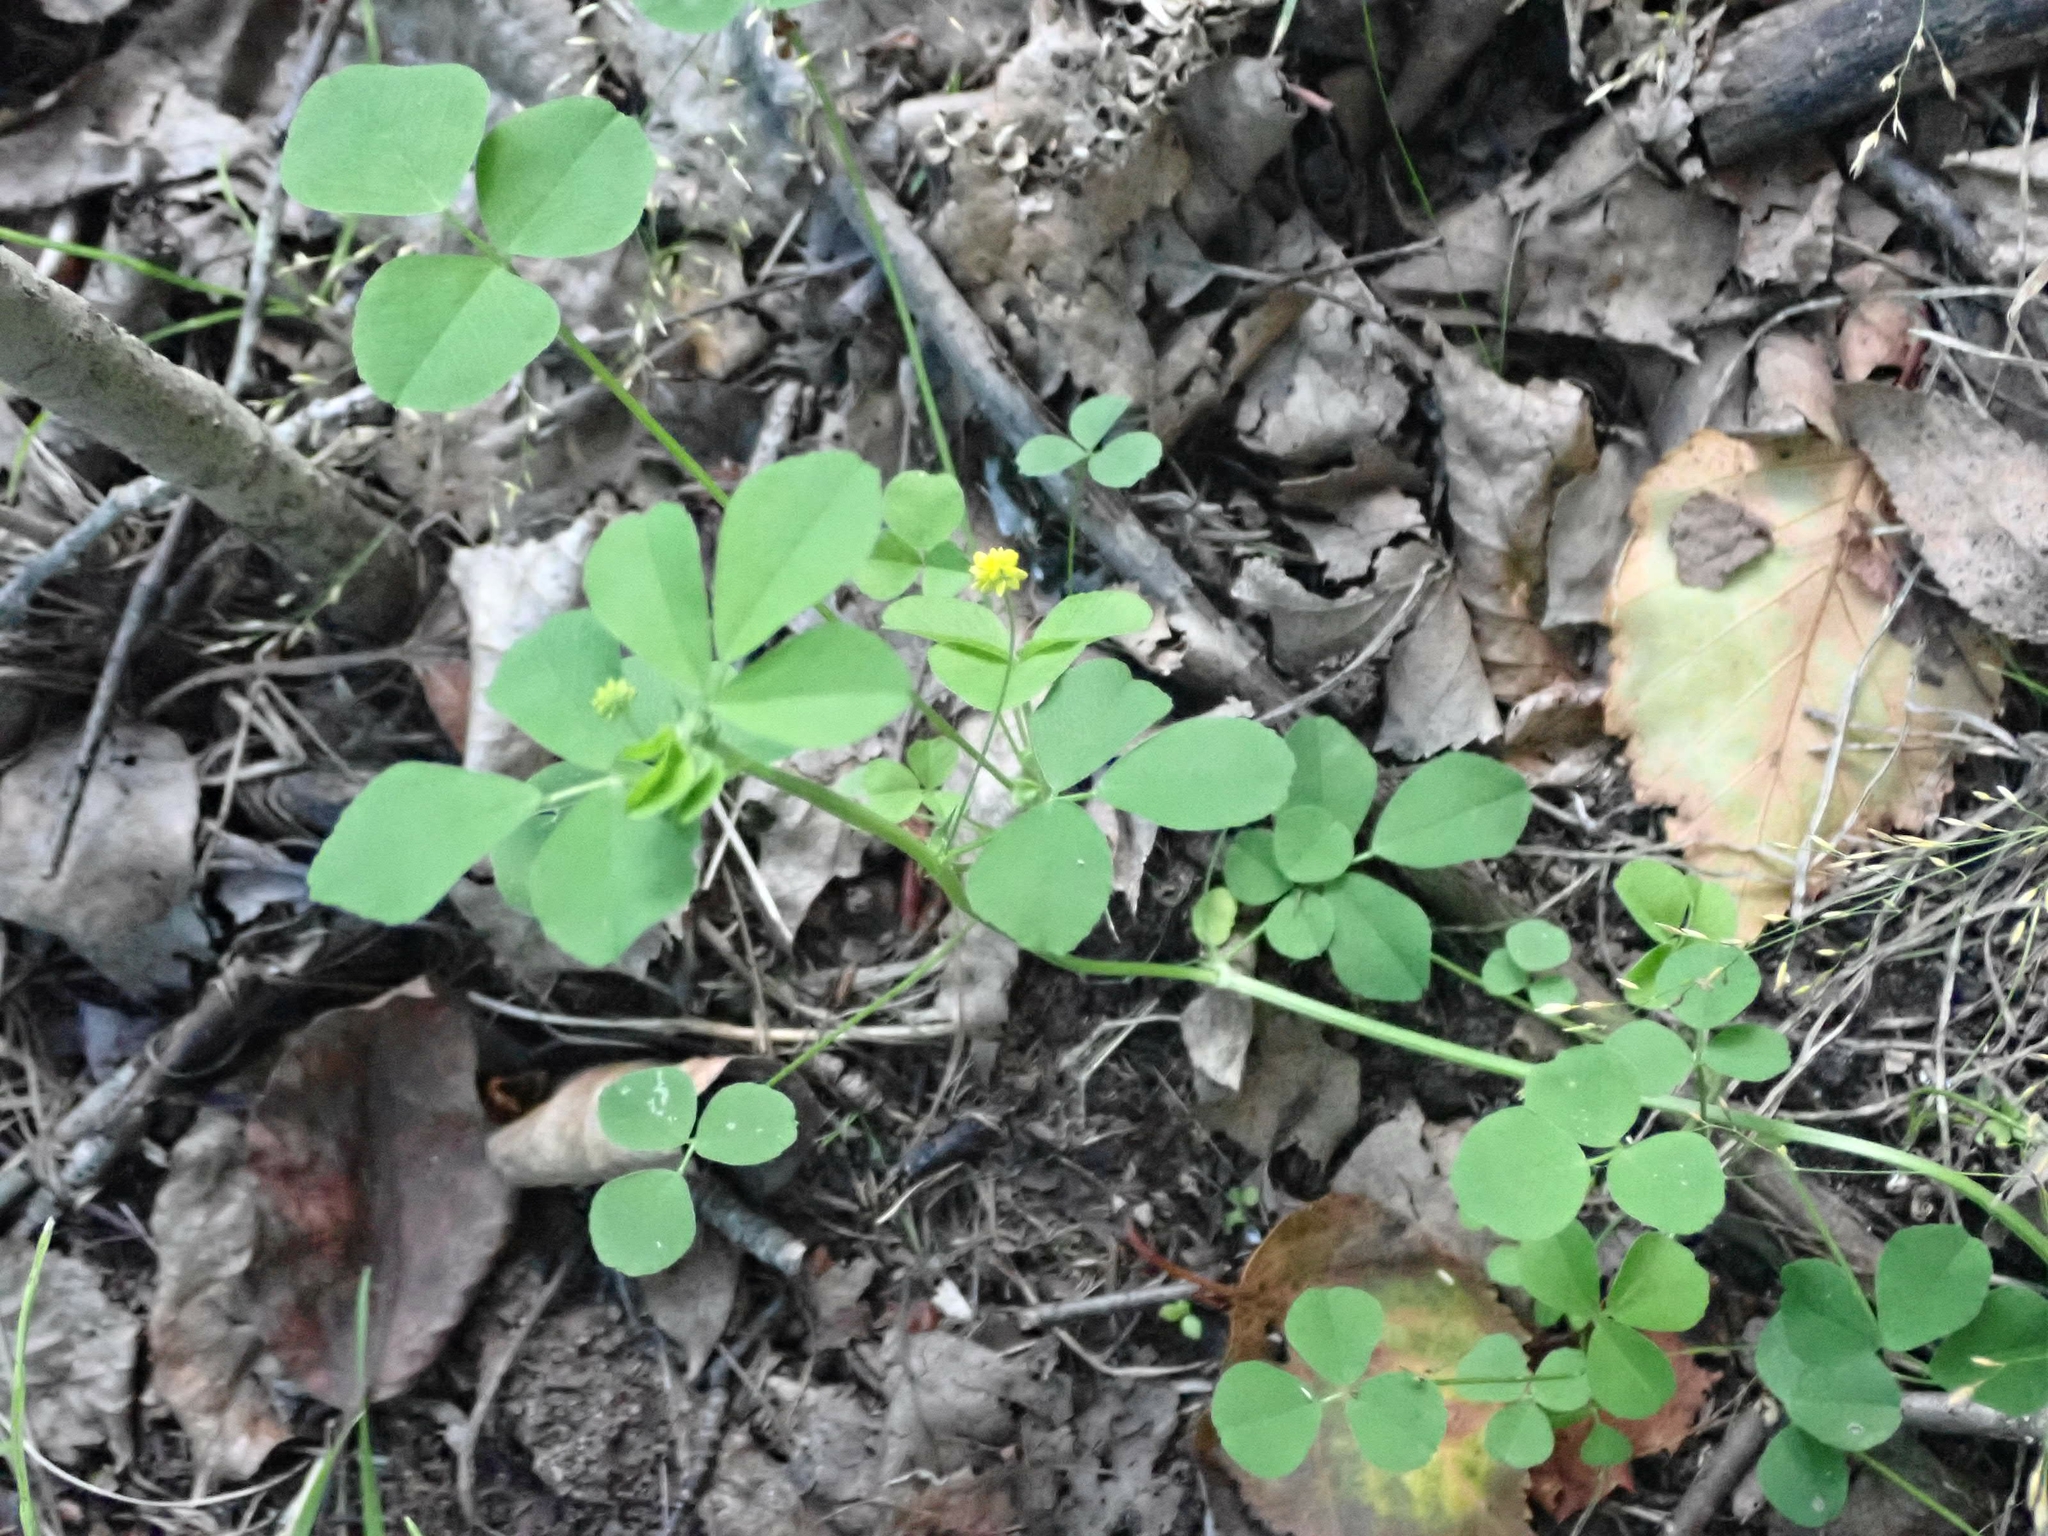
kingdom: Plantae
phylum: Tracheophyta
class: Magnoliopsida
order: Fabales
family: Fabaceae
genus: Medicago
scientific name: Medicago lupulina
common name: Black medick
